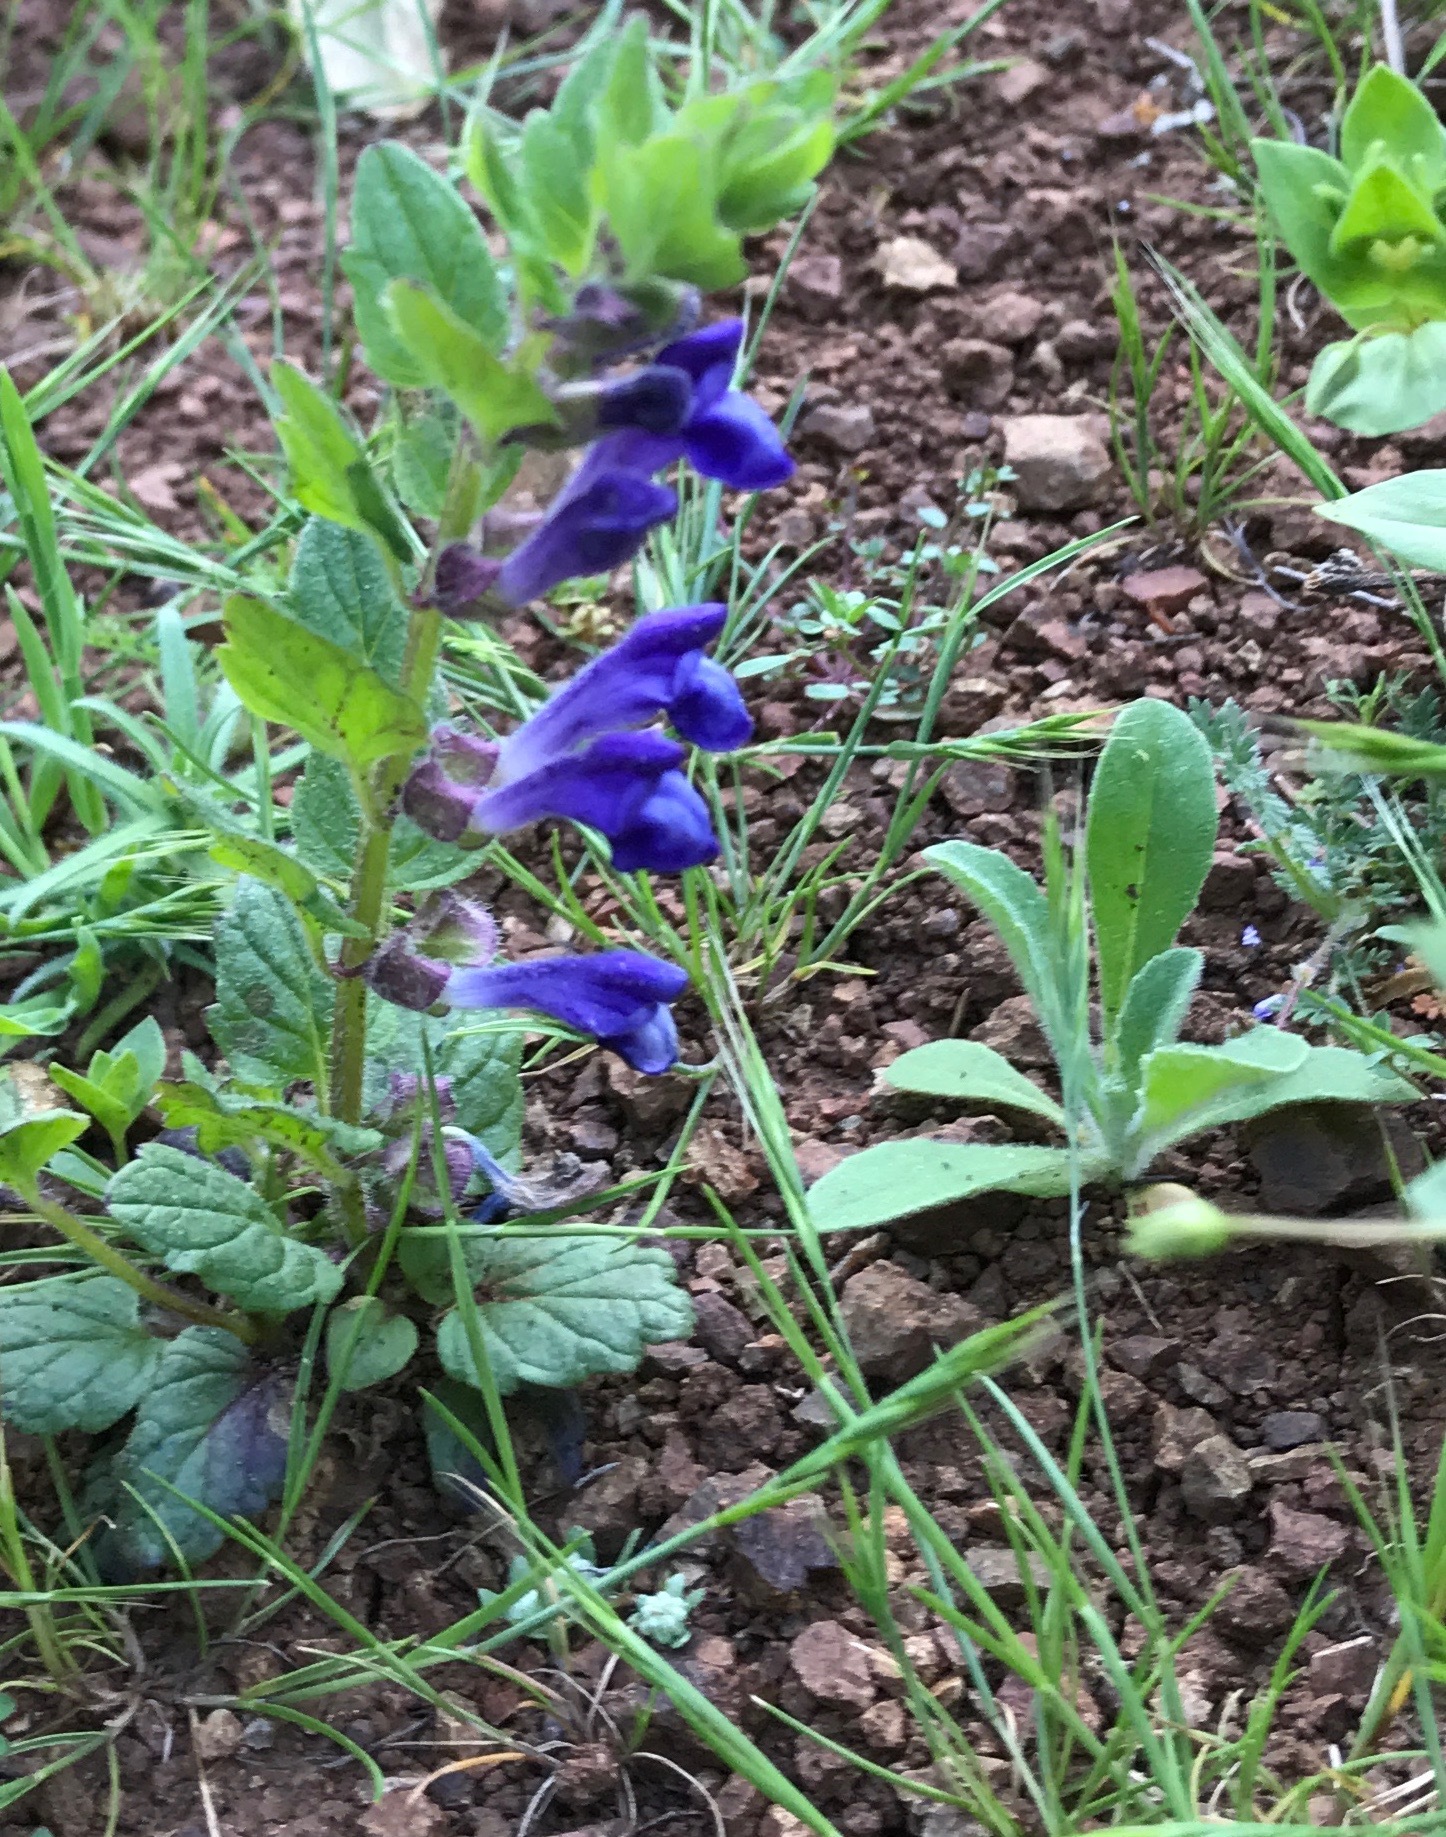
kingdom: Plantae
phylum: Tracheophyta
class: Magnoliopsida
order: Lamiales
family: Lamiaceae
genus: Scutellaria
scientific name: Scutellaria tuberosa
